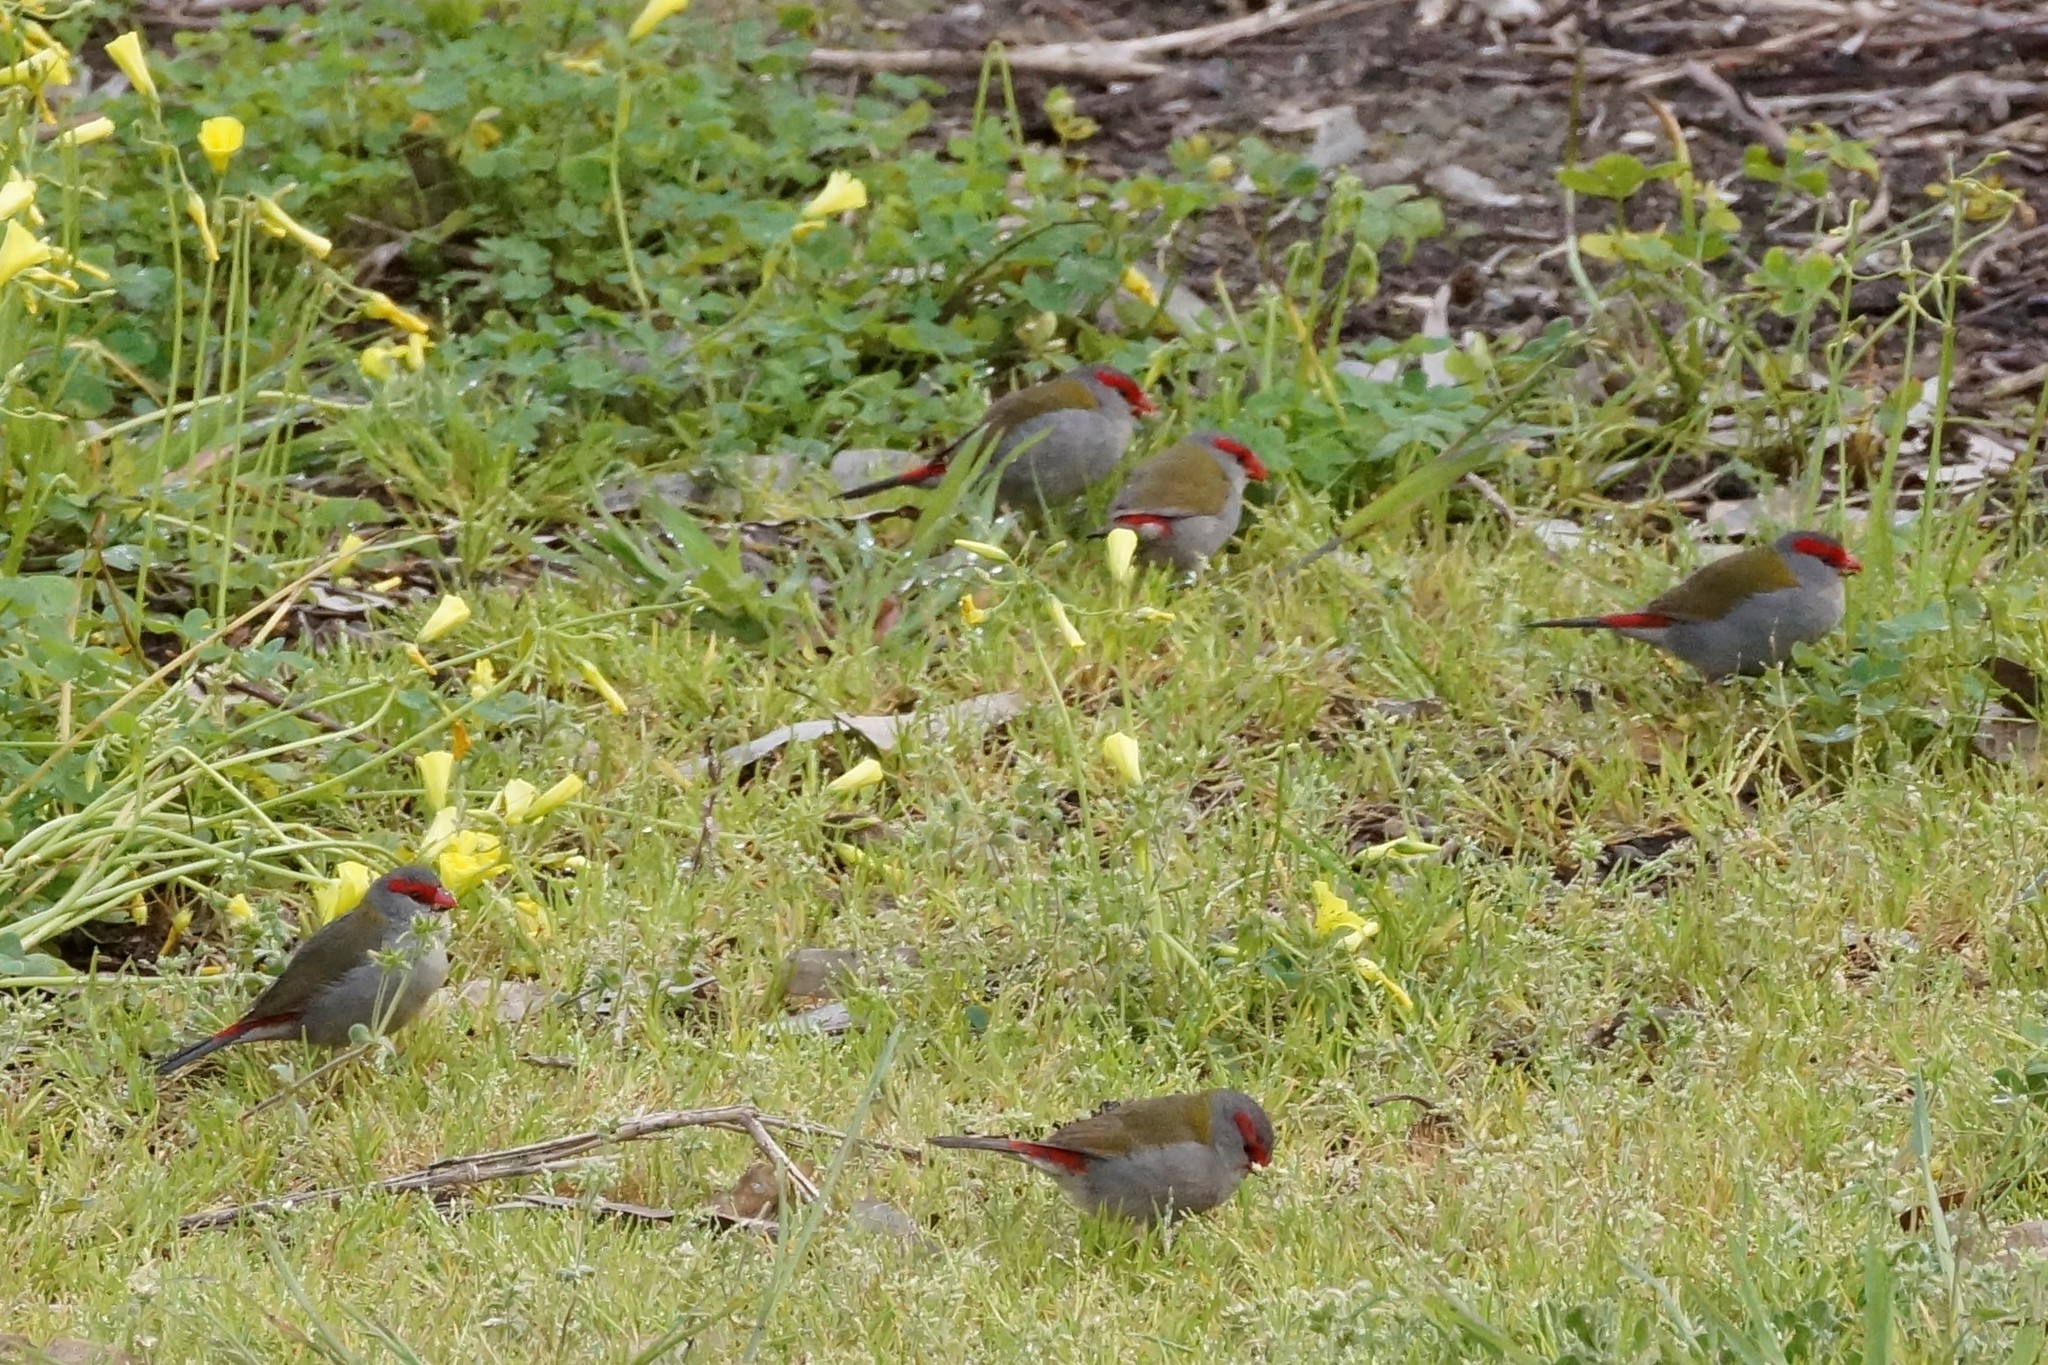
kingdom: Animalia
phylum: Chordata
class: Aves
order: Passeriformes
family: Estrildidae
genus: Neochmia
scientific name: Neochmia temporalis
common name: Red-browed finch
